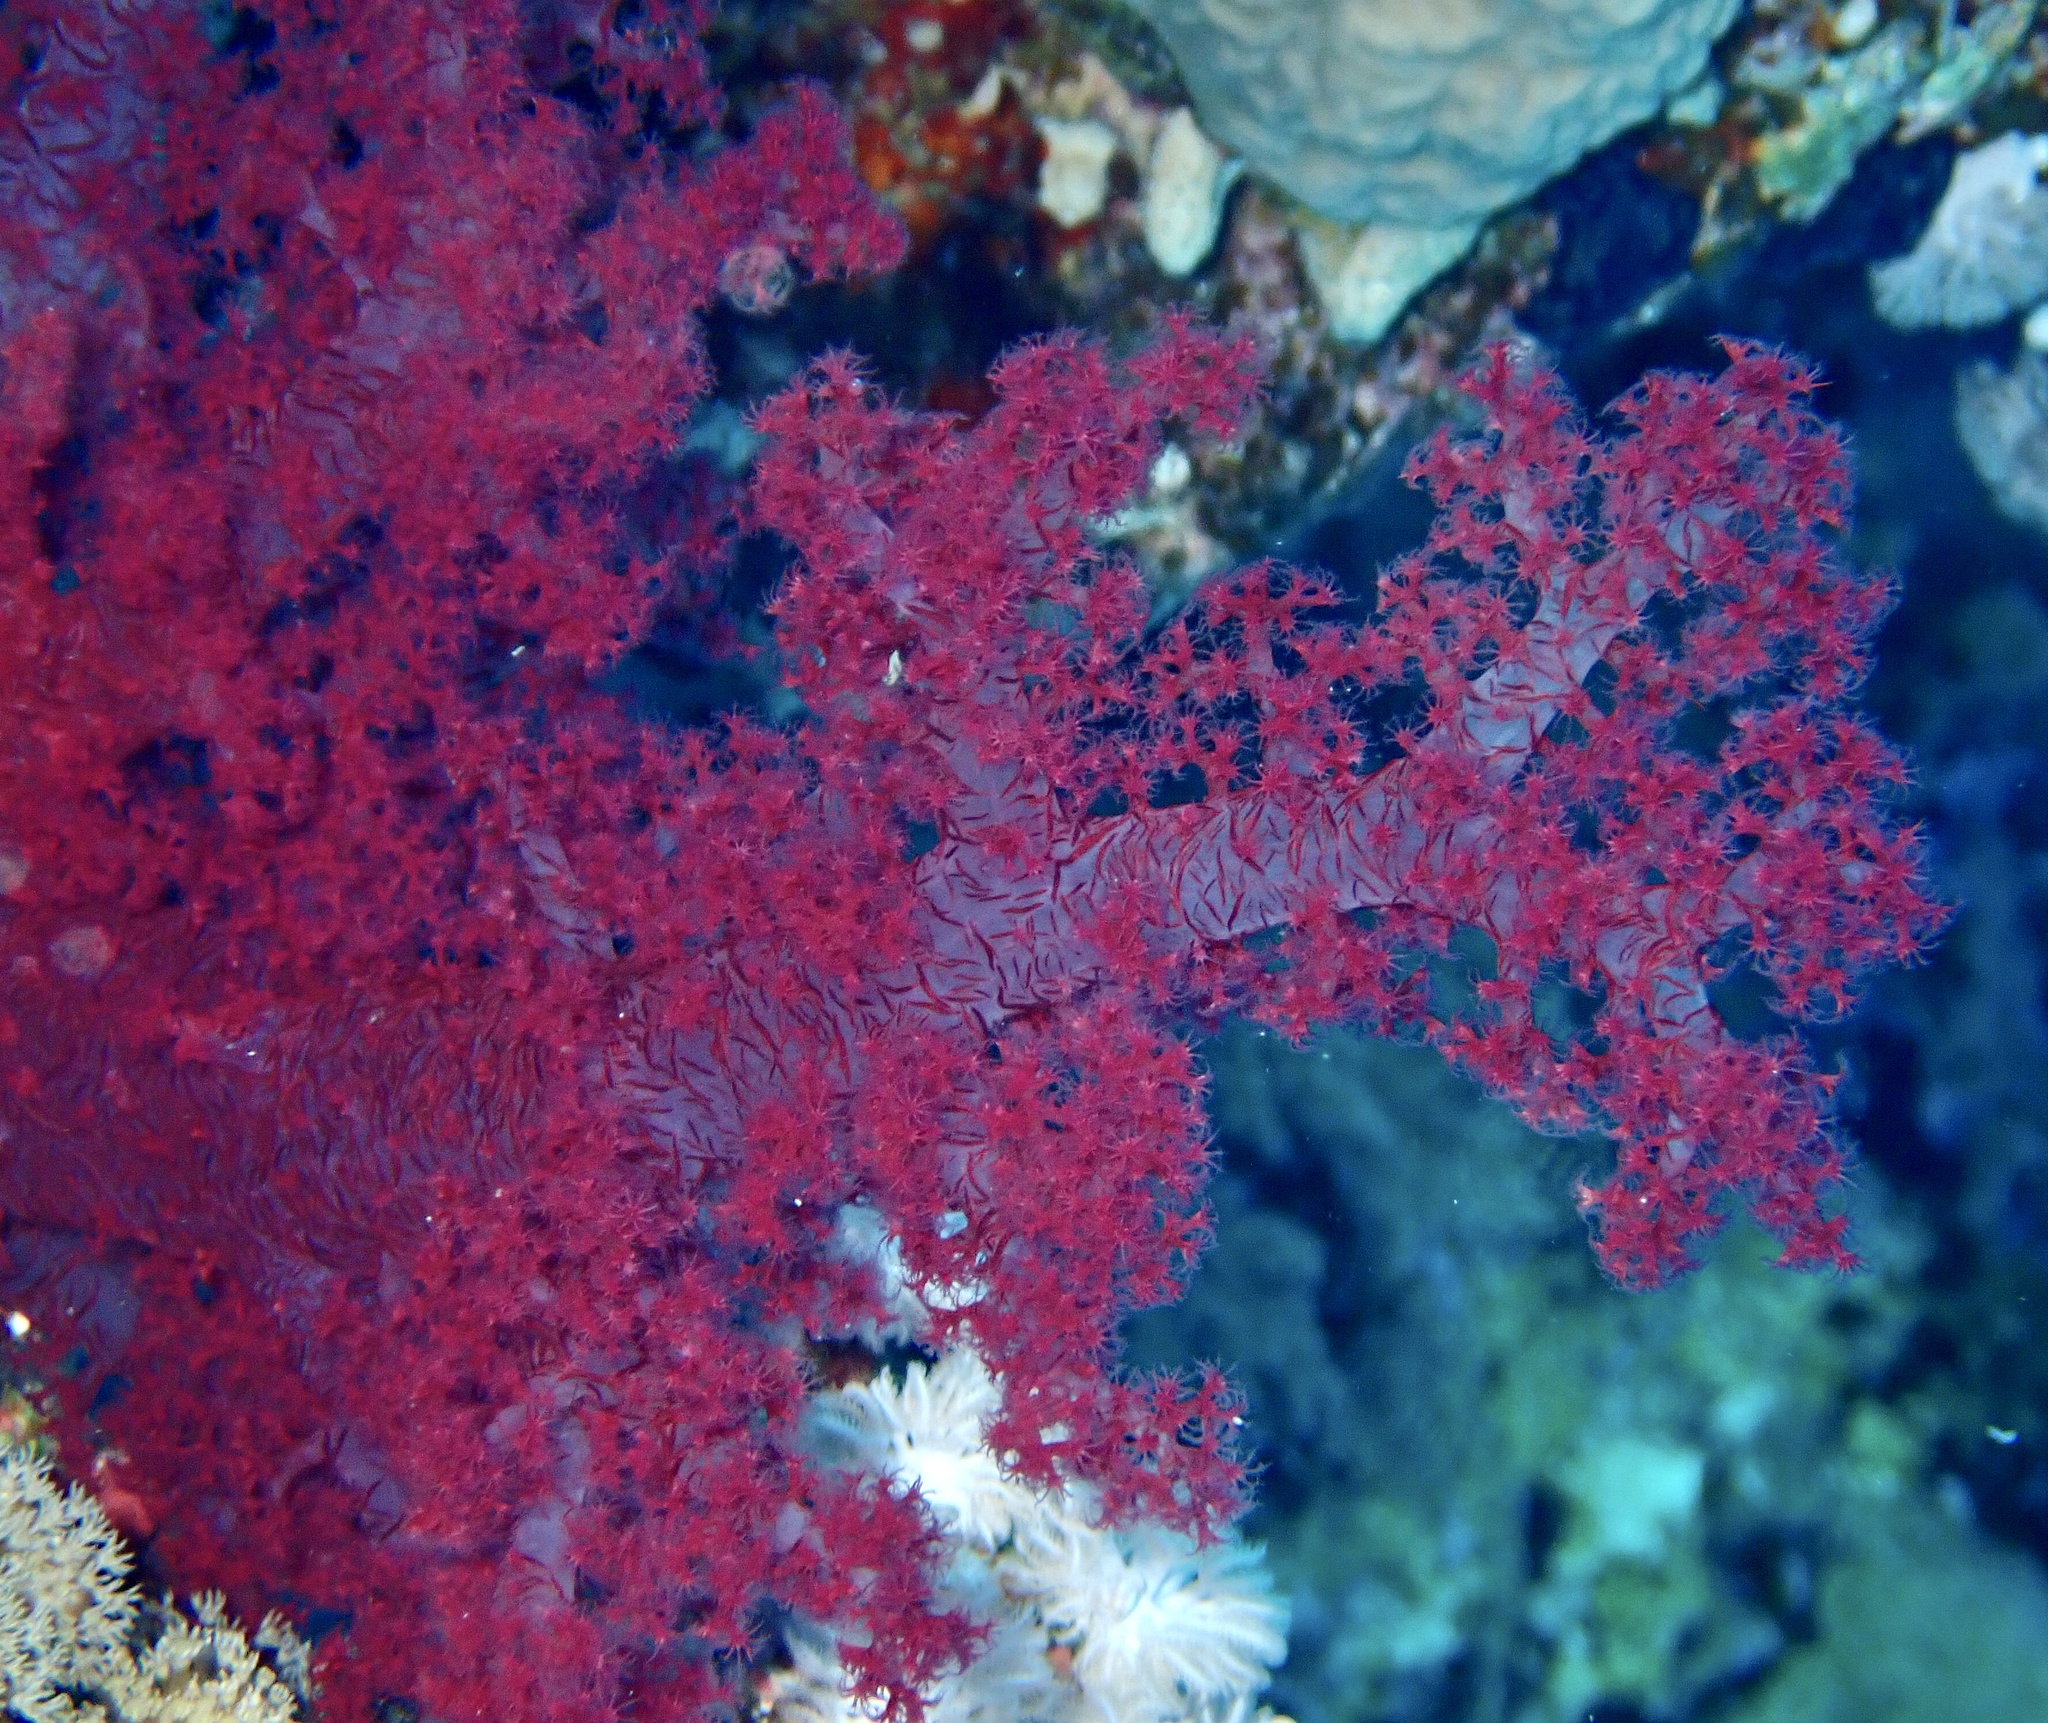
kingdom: Animalia
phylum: Cnidaria
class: Anthozoa
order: Malacalcyonacea
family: Nephtheidae
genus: Dendronephthya
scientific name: Dendronephthya hemprichi
